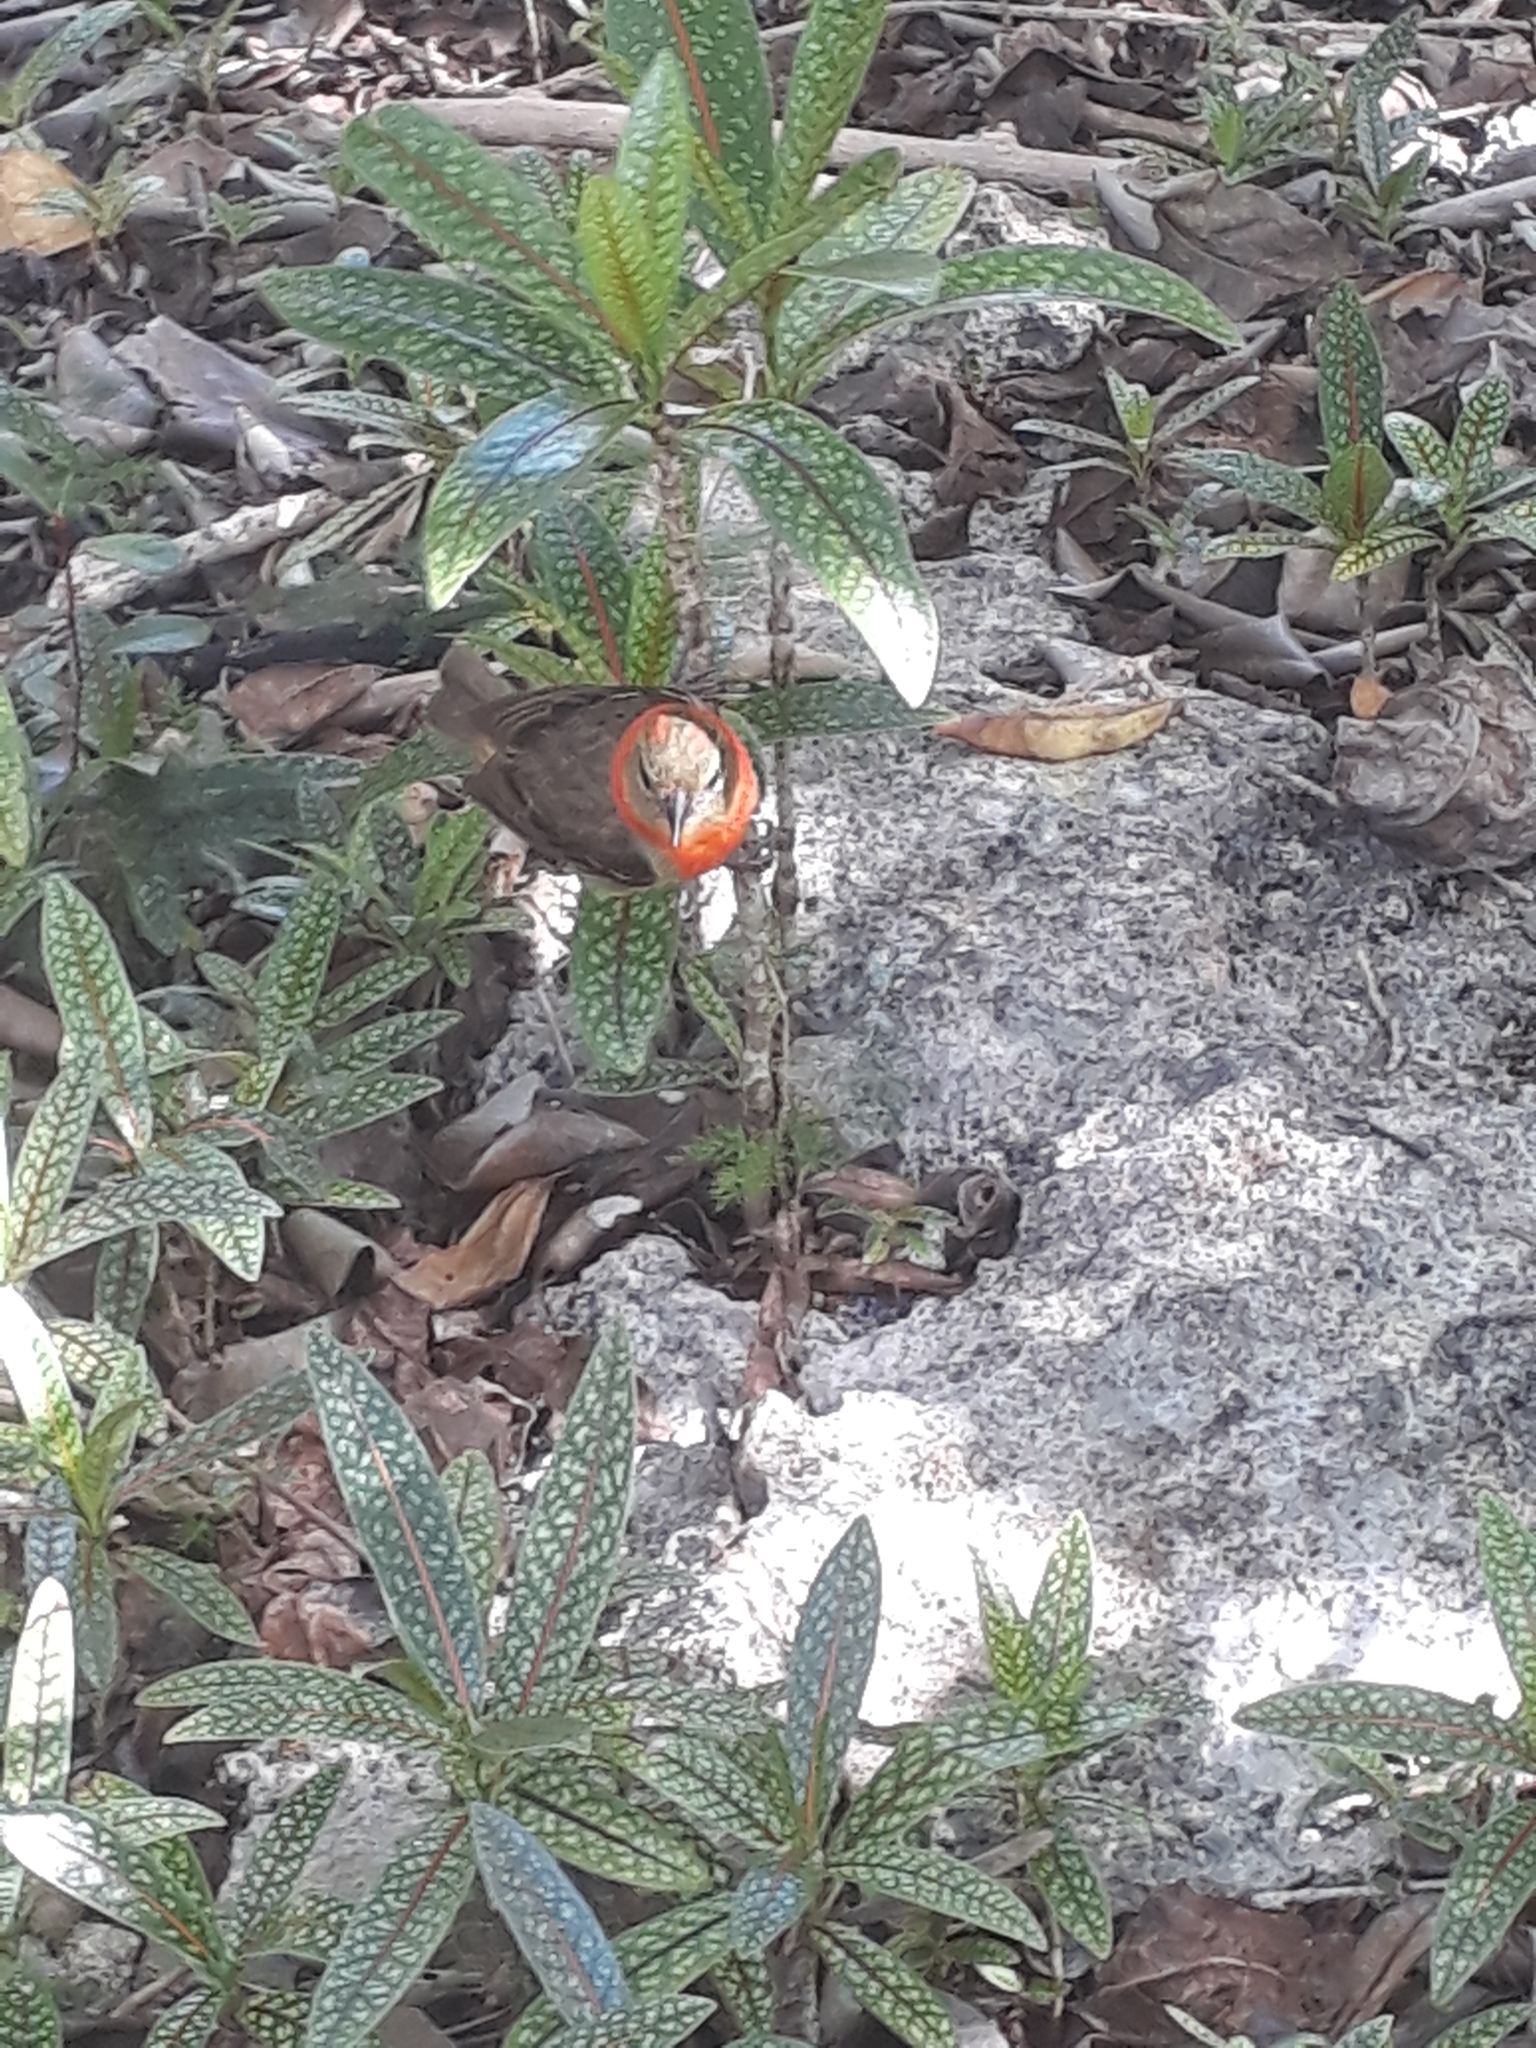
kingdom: Animalia
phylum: Chordata
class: Aves
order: Passeriformes
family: Ploceidae
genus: Foudia
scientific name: Foudia rubra
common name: Mauritius fody
